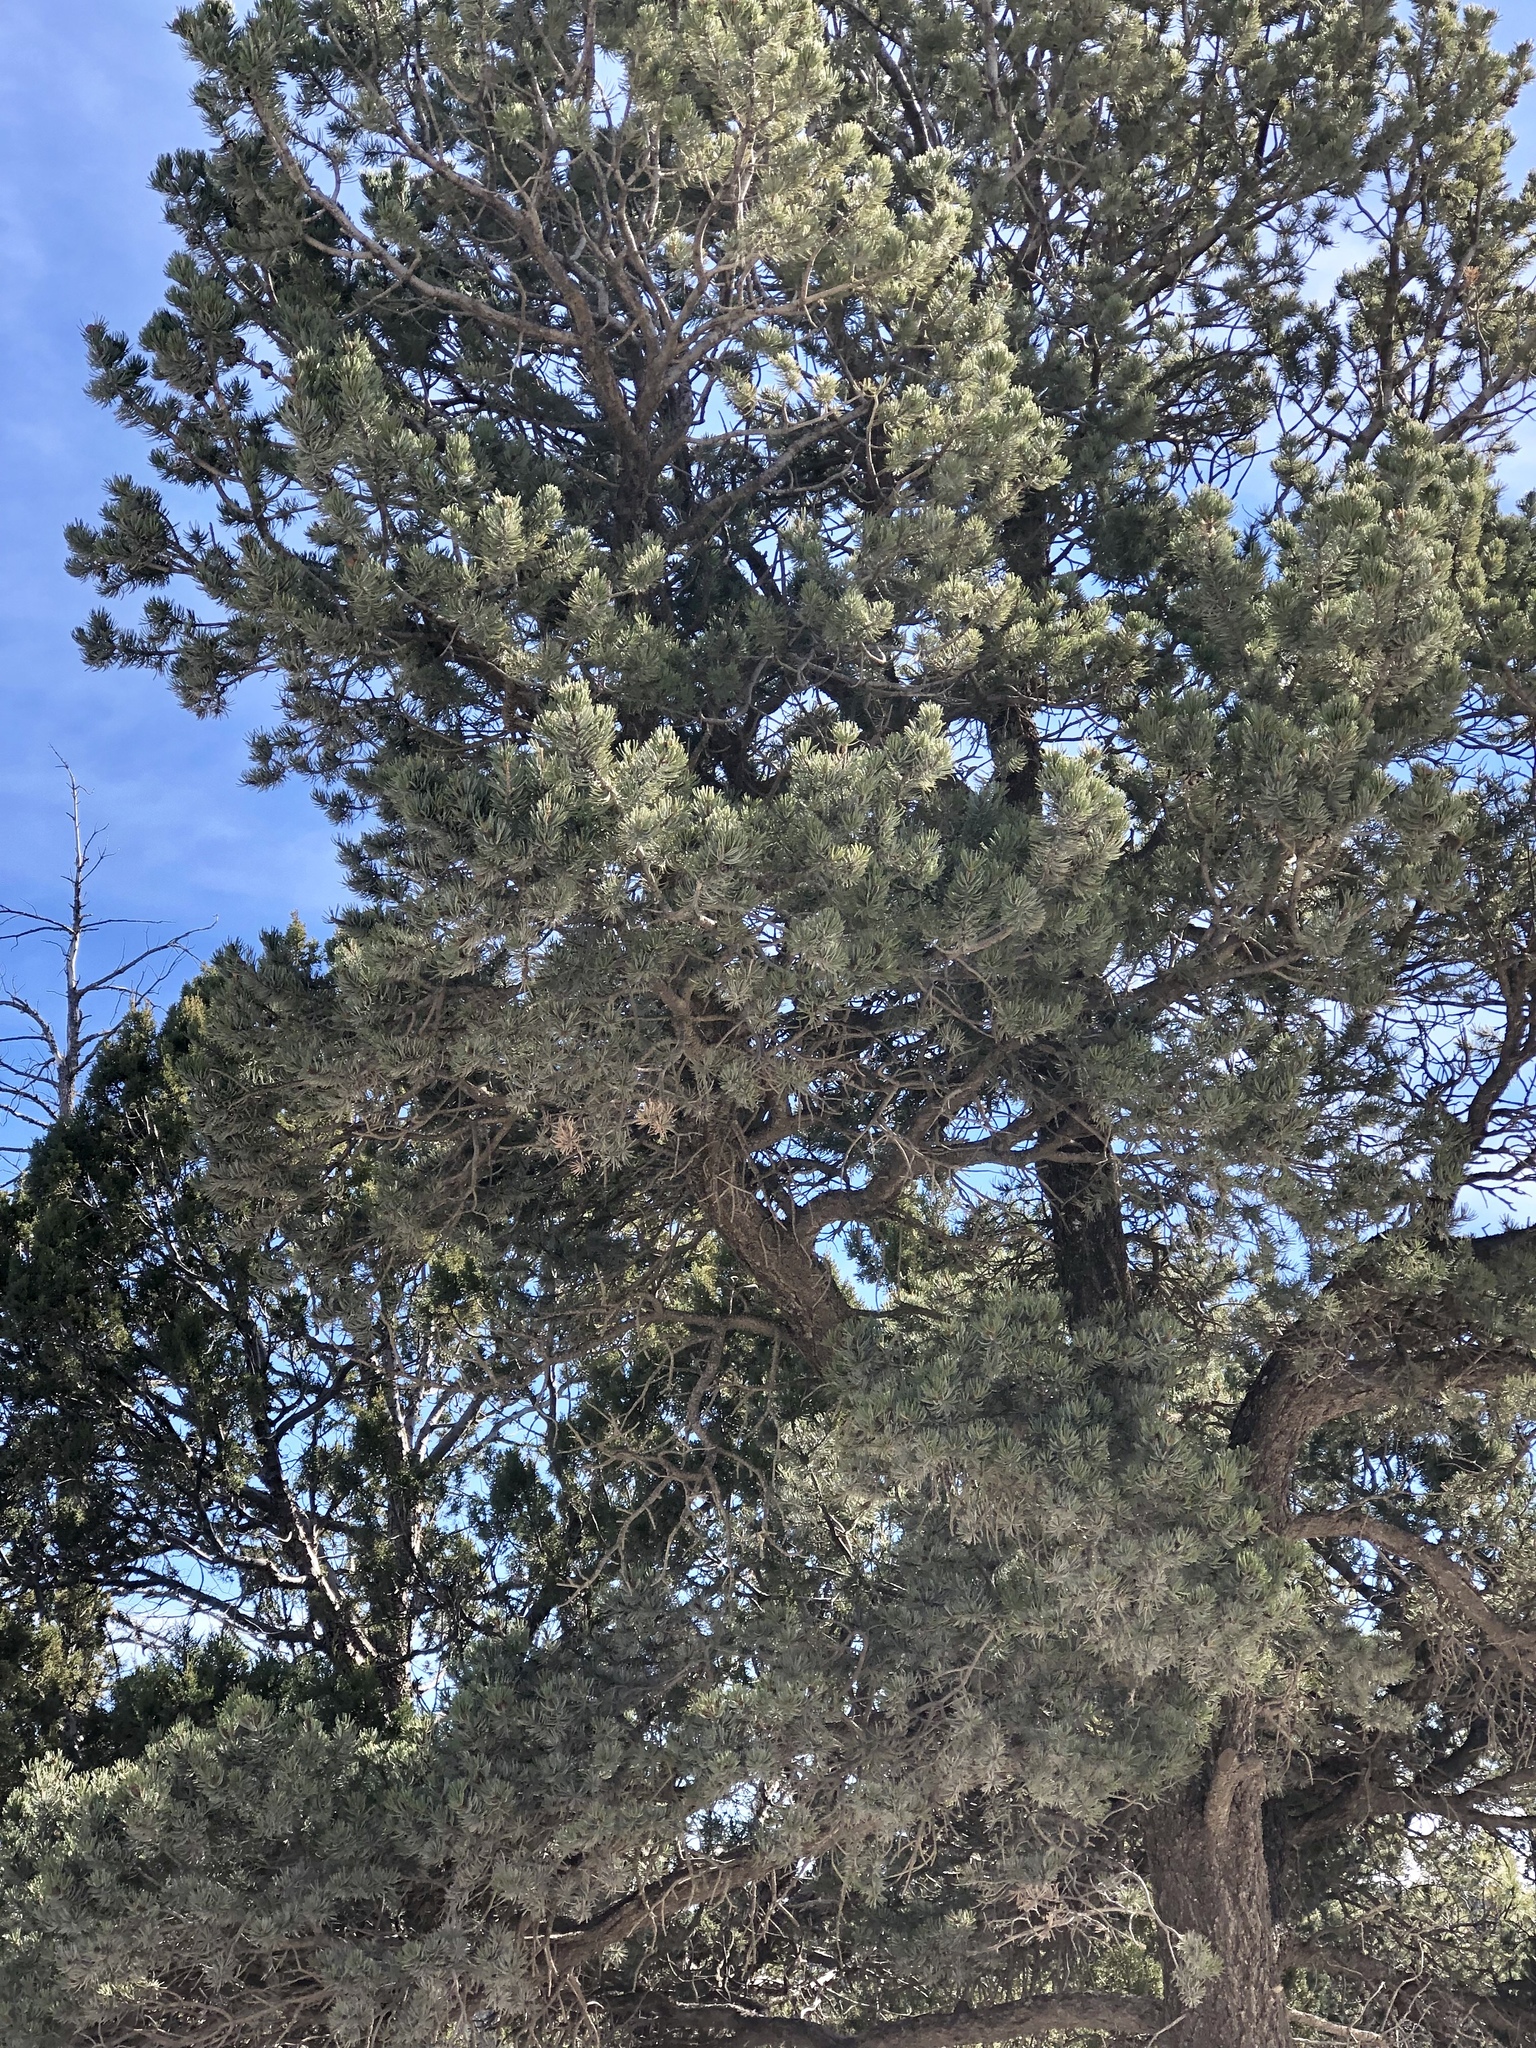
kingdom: Plantae
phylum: Tracheophyta
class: Pinopsida
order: Pinales
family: Pinaceae
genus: Pinus
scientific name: Pinus edulis
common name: Colorado pinyon
